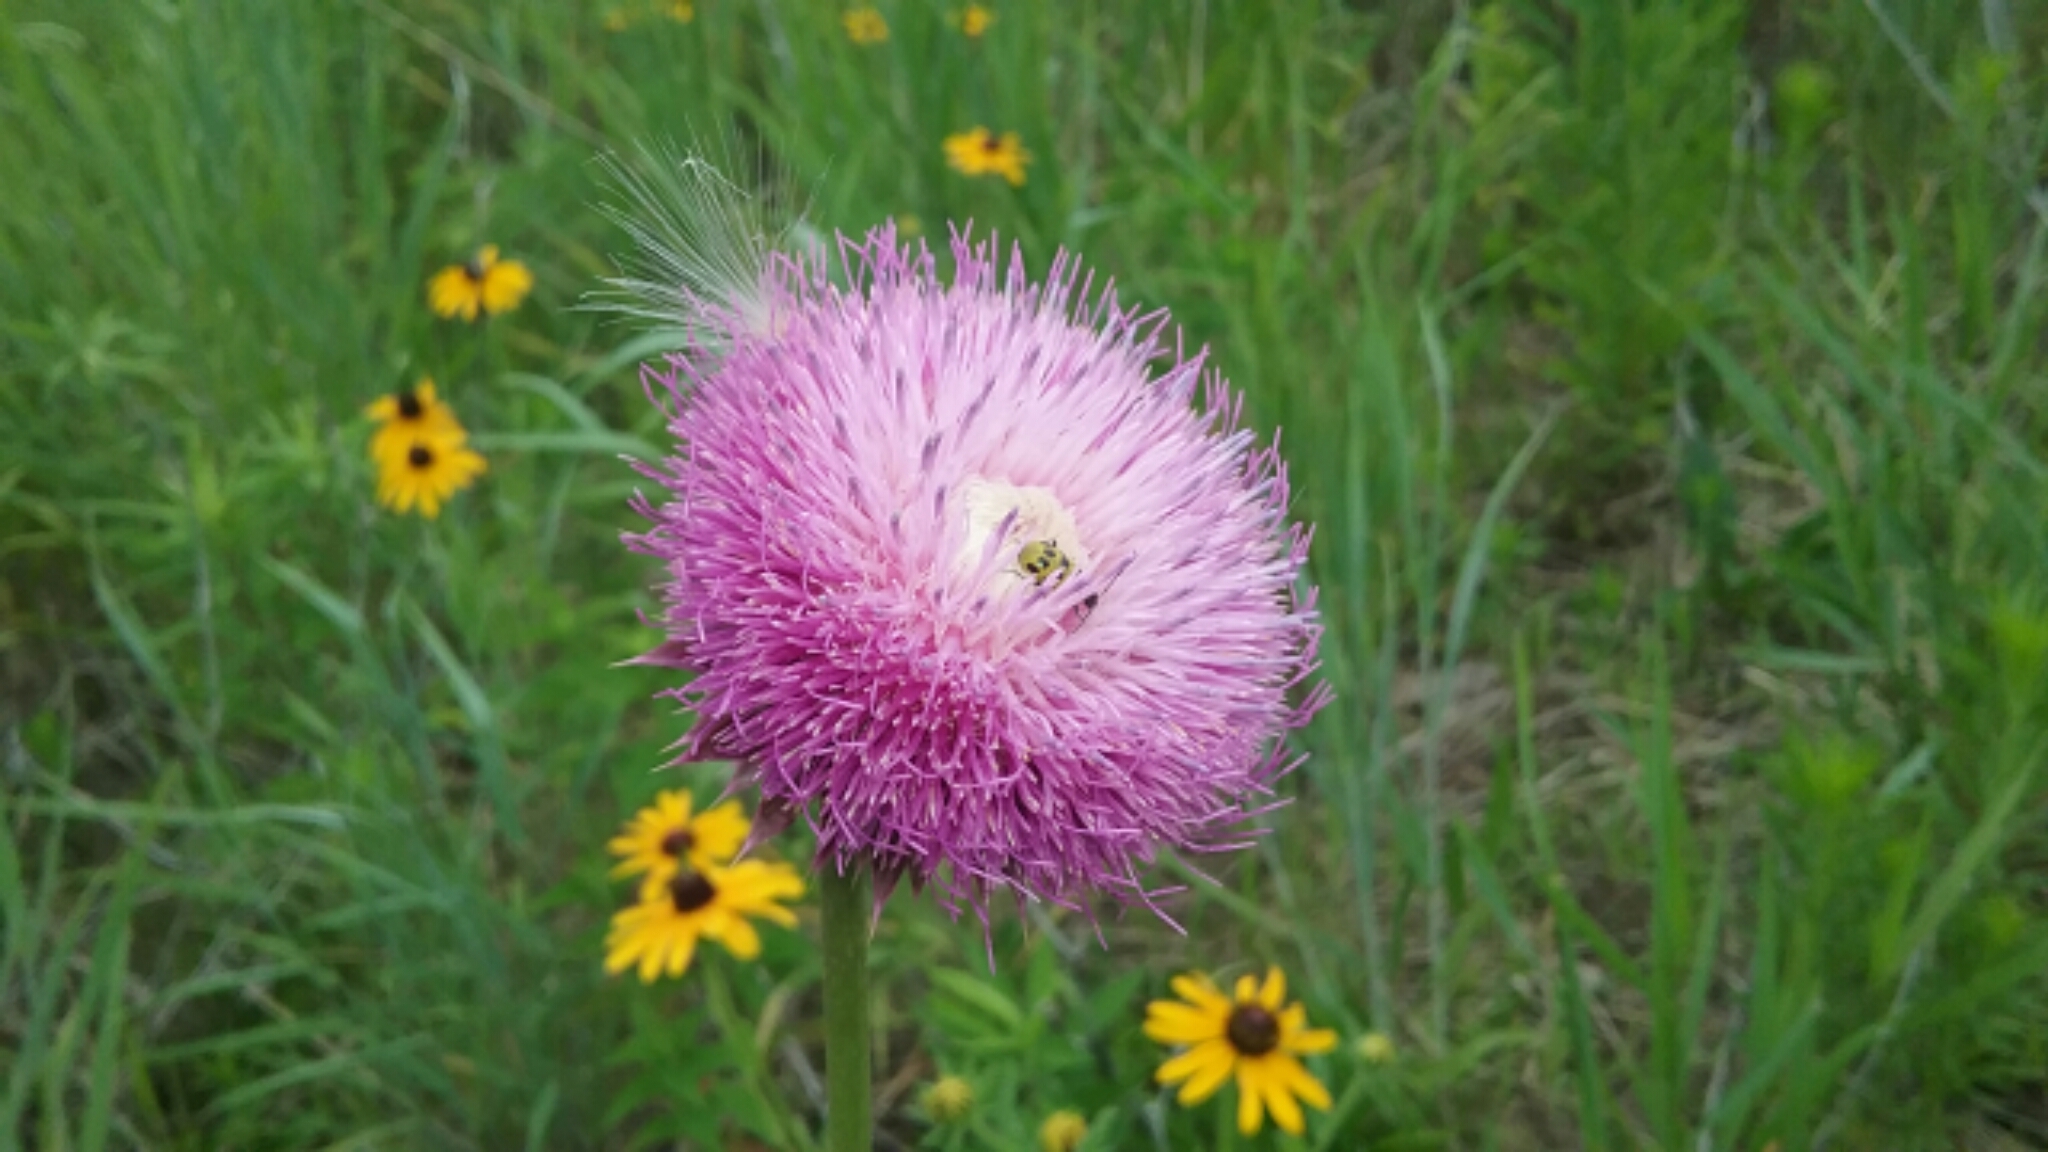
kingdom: Plantae
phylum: Tracheophyta
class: Magnoliopsida
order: Asterales
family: Asteraceae
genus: Carduus
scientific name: Carduus nutans
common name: Musk thistle
